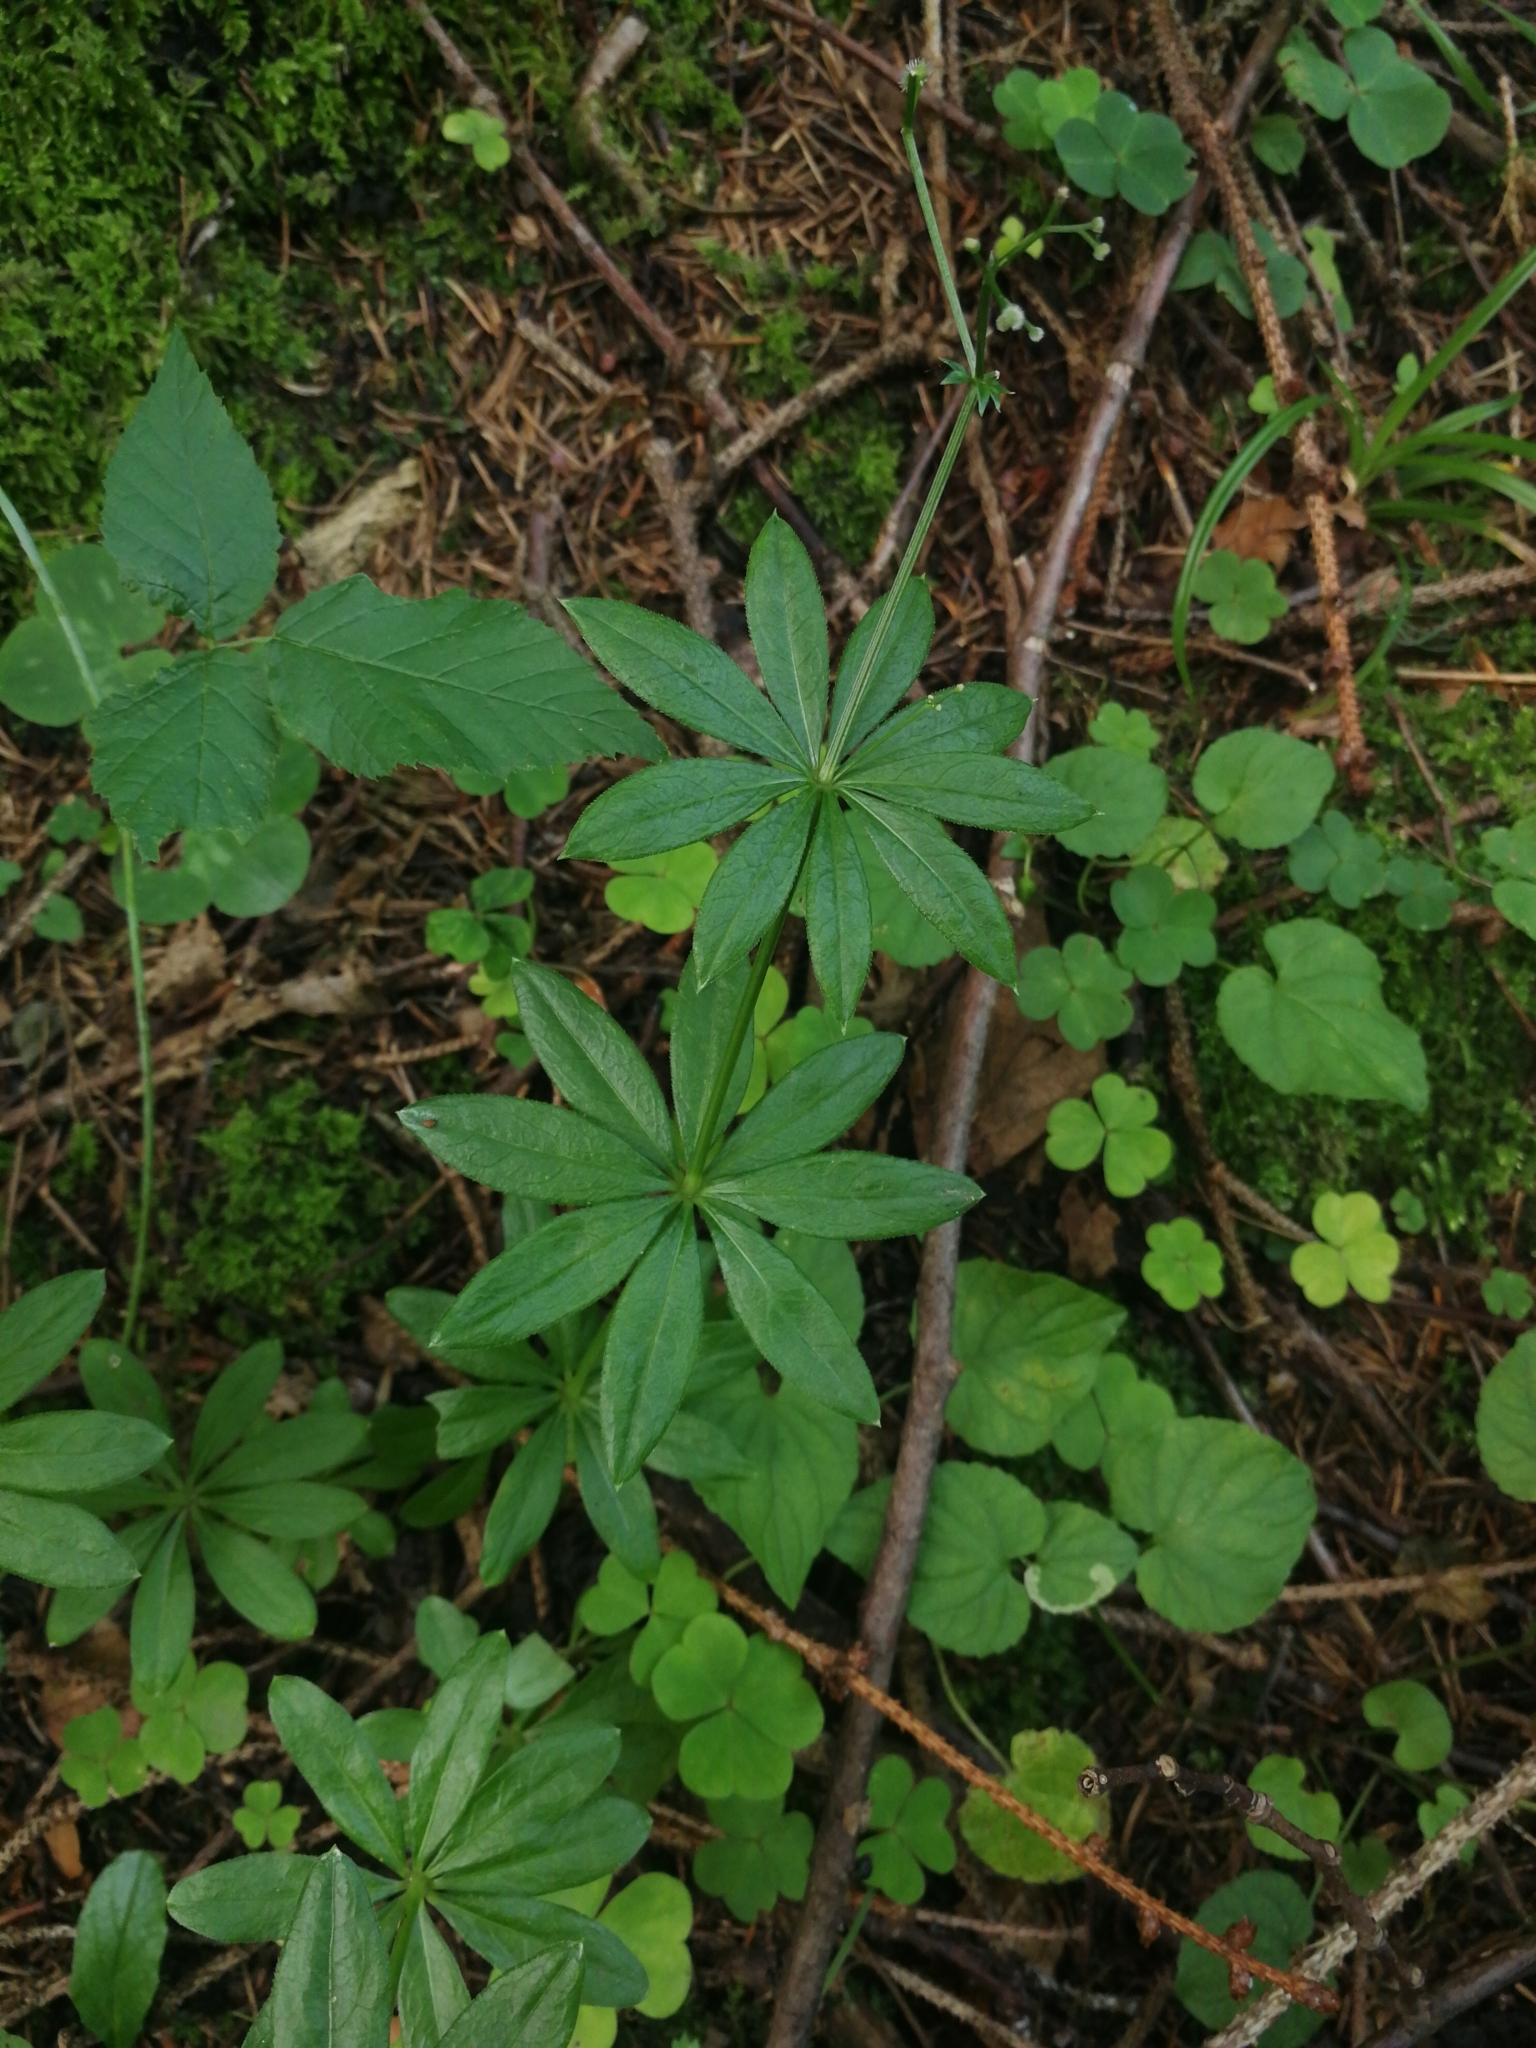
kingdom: Plantae
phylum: Tracheophyta
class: Magnoliopsida
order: Gentianales
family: Rubiaceae
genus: Galium
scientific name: Galium odoratum
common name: Sweet woodruff
